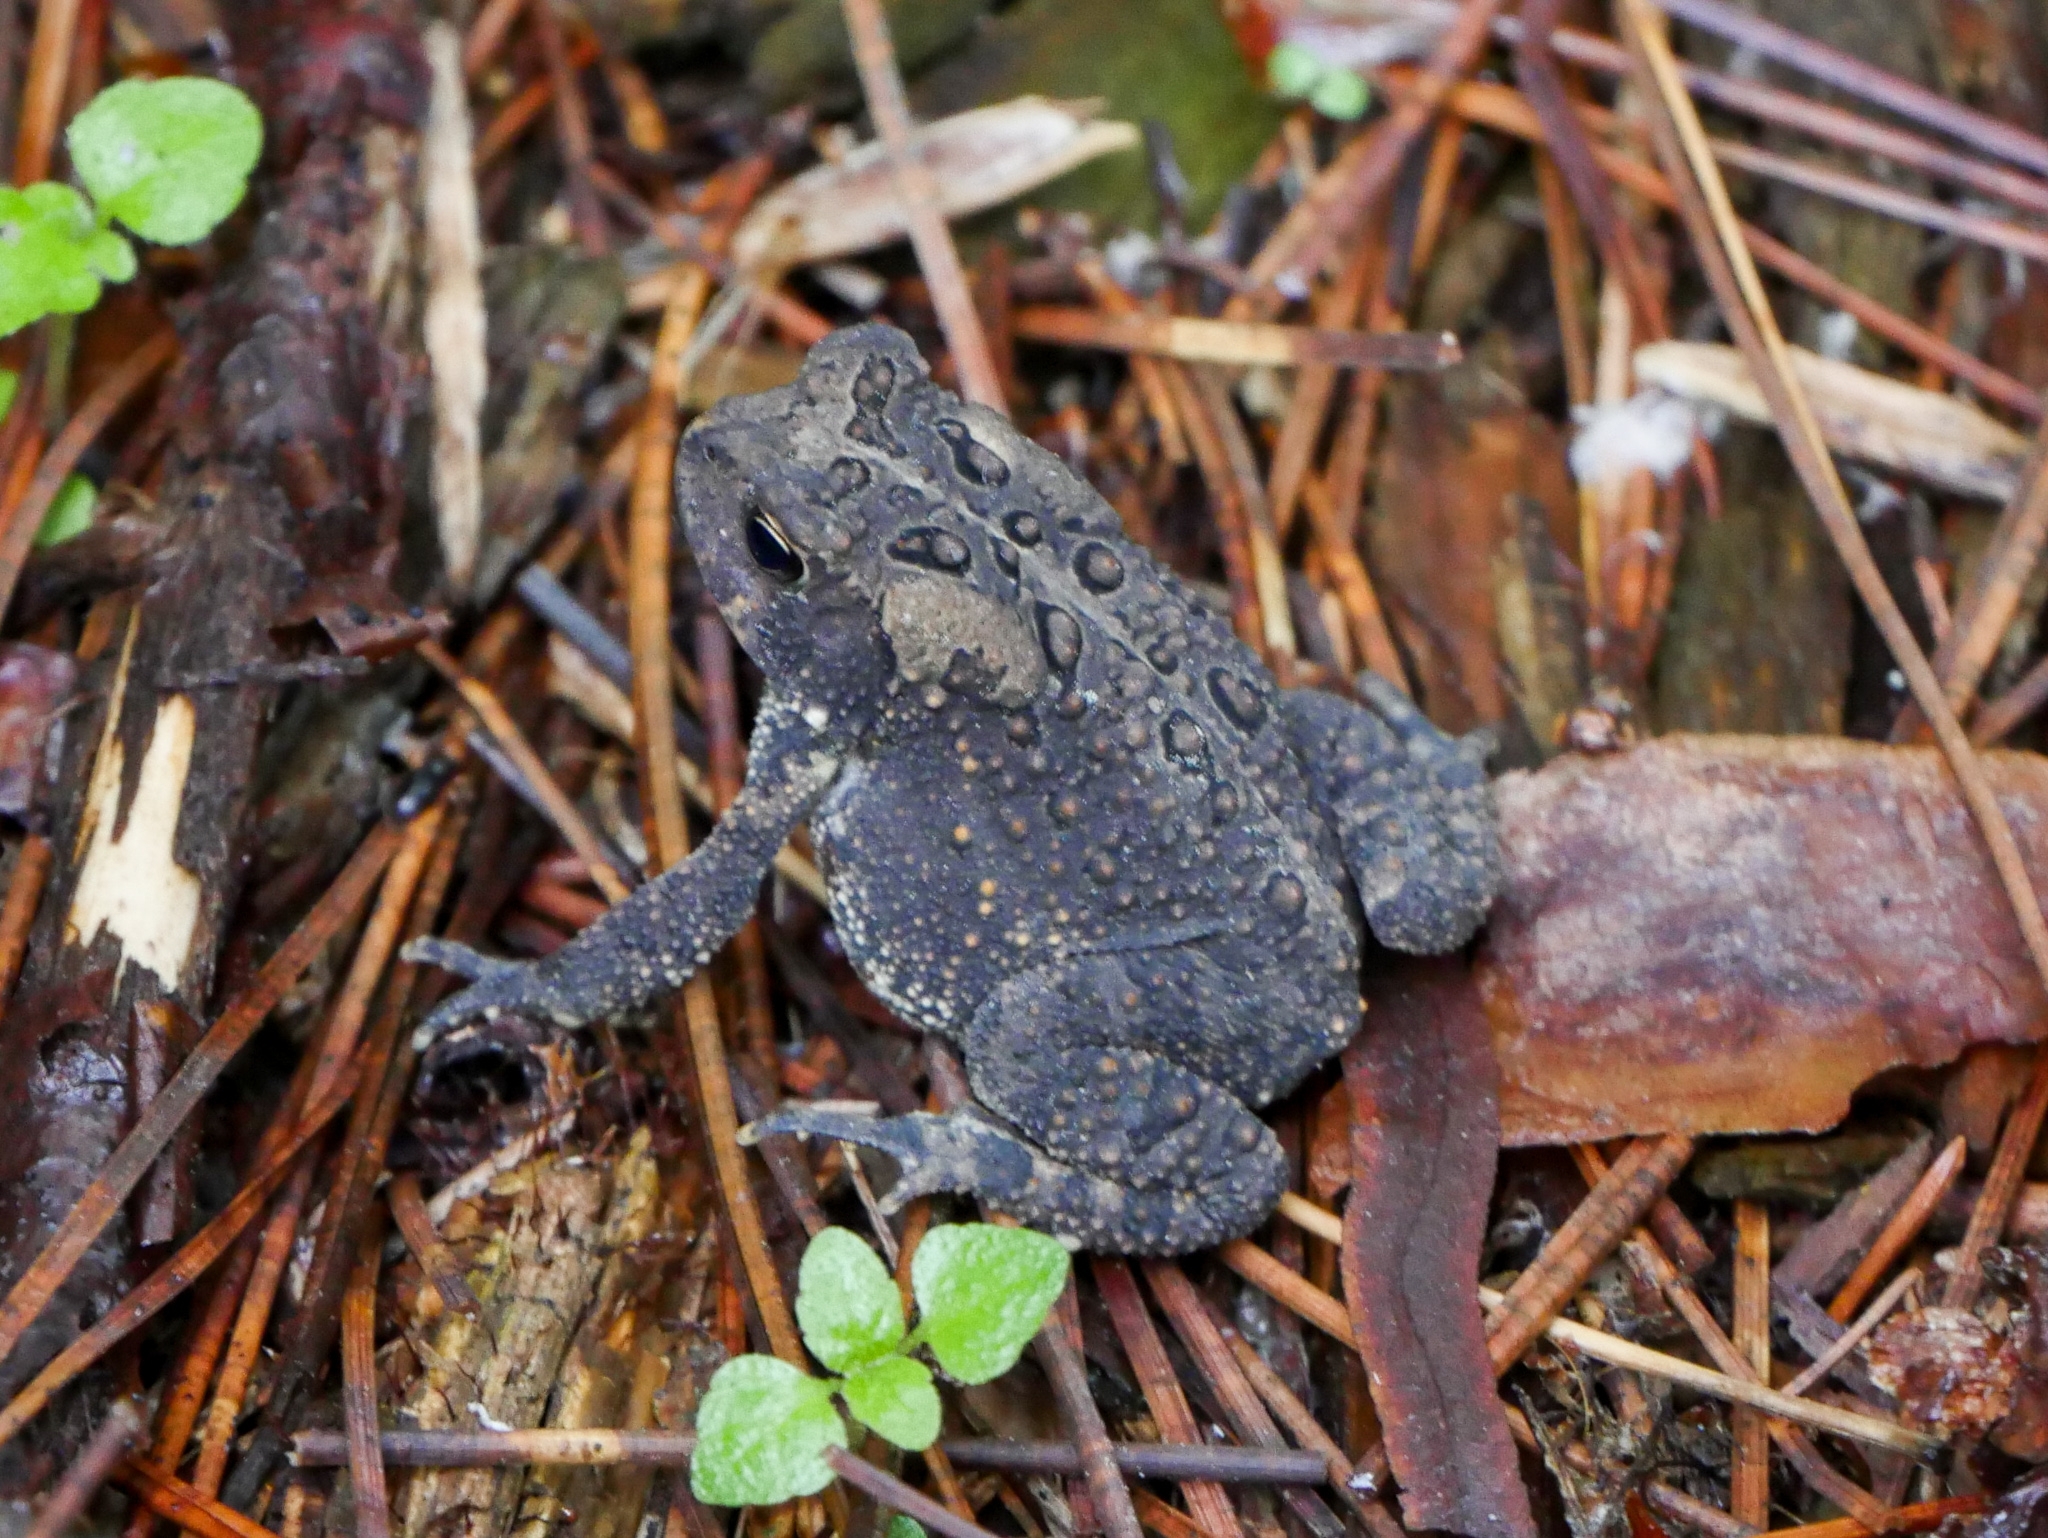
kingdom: Animalia
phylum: Chordata
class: Amphibia
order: Anura
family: Bufonidae
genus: Anaxyrus
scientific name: Anaxyrus americanus
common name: American toad
